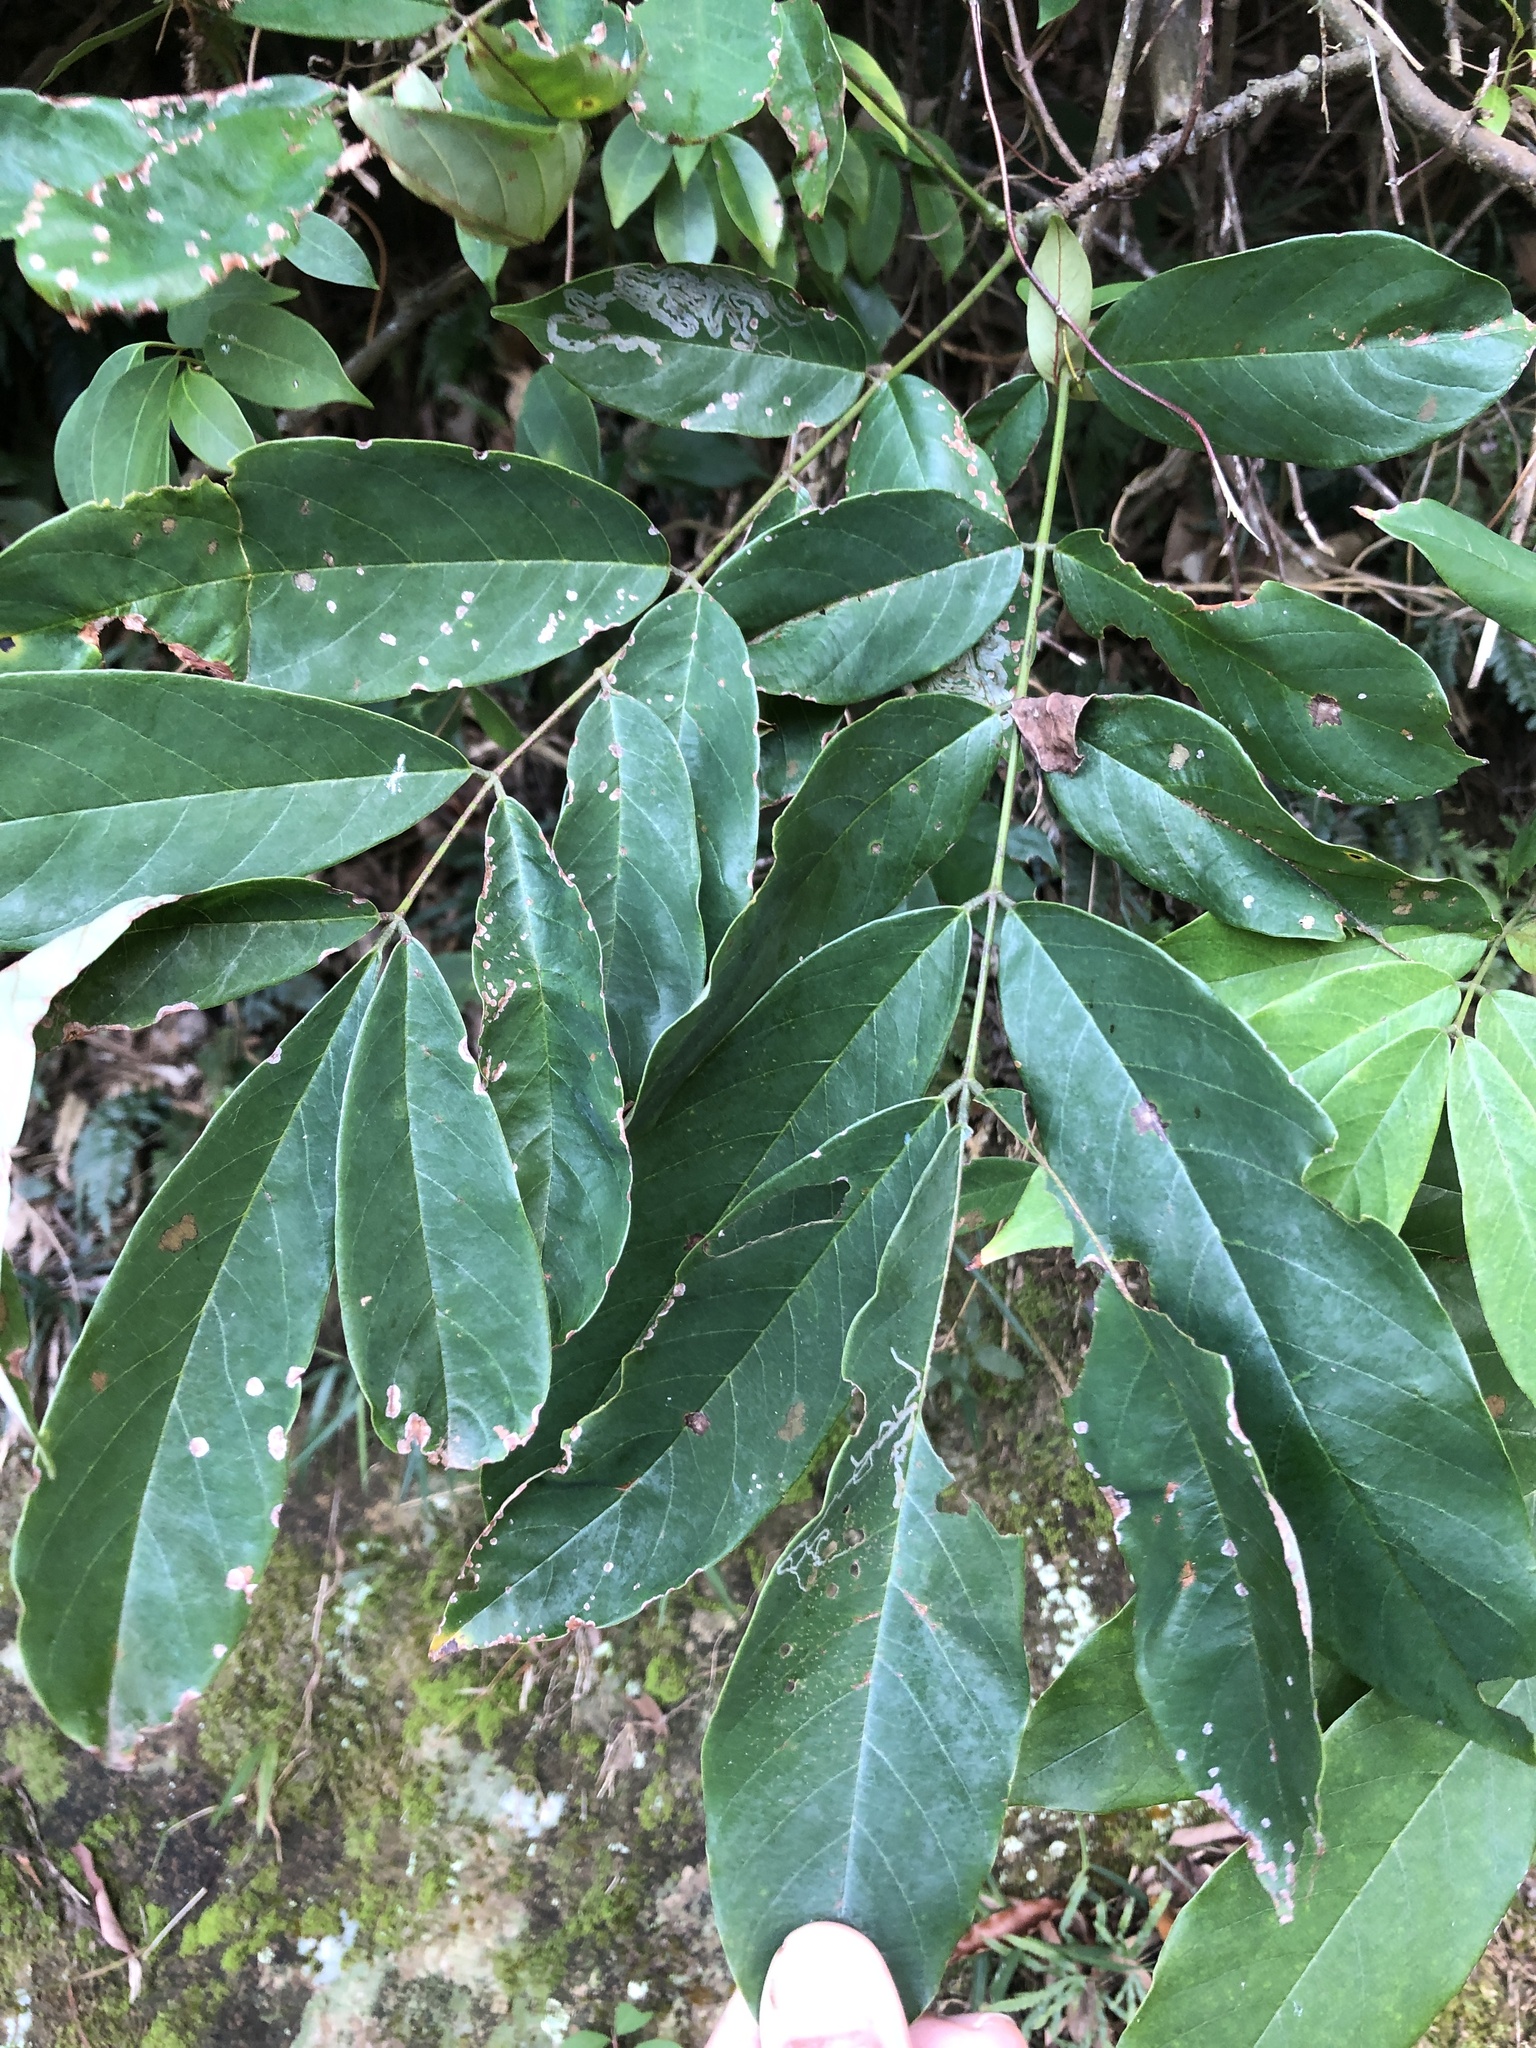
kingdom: Plantae
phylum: Tracheophyta
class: Magnoliopsida
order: Fabales
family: Fabaceae
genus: Millettia
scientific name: Millettia pachycarpa
